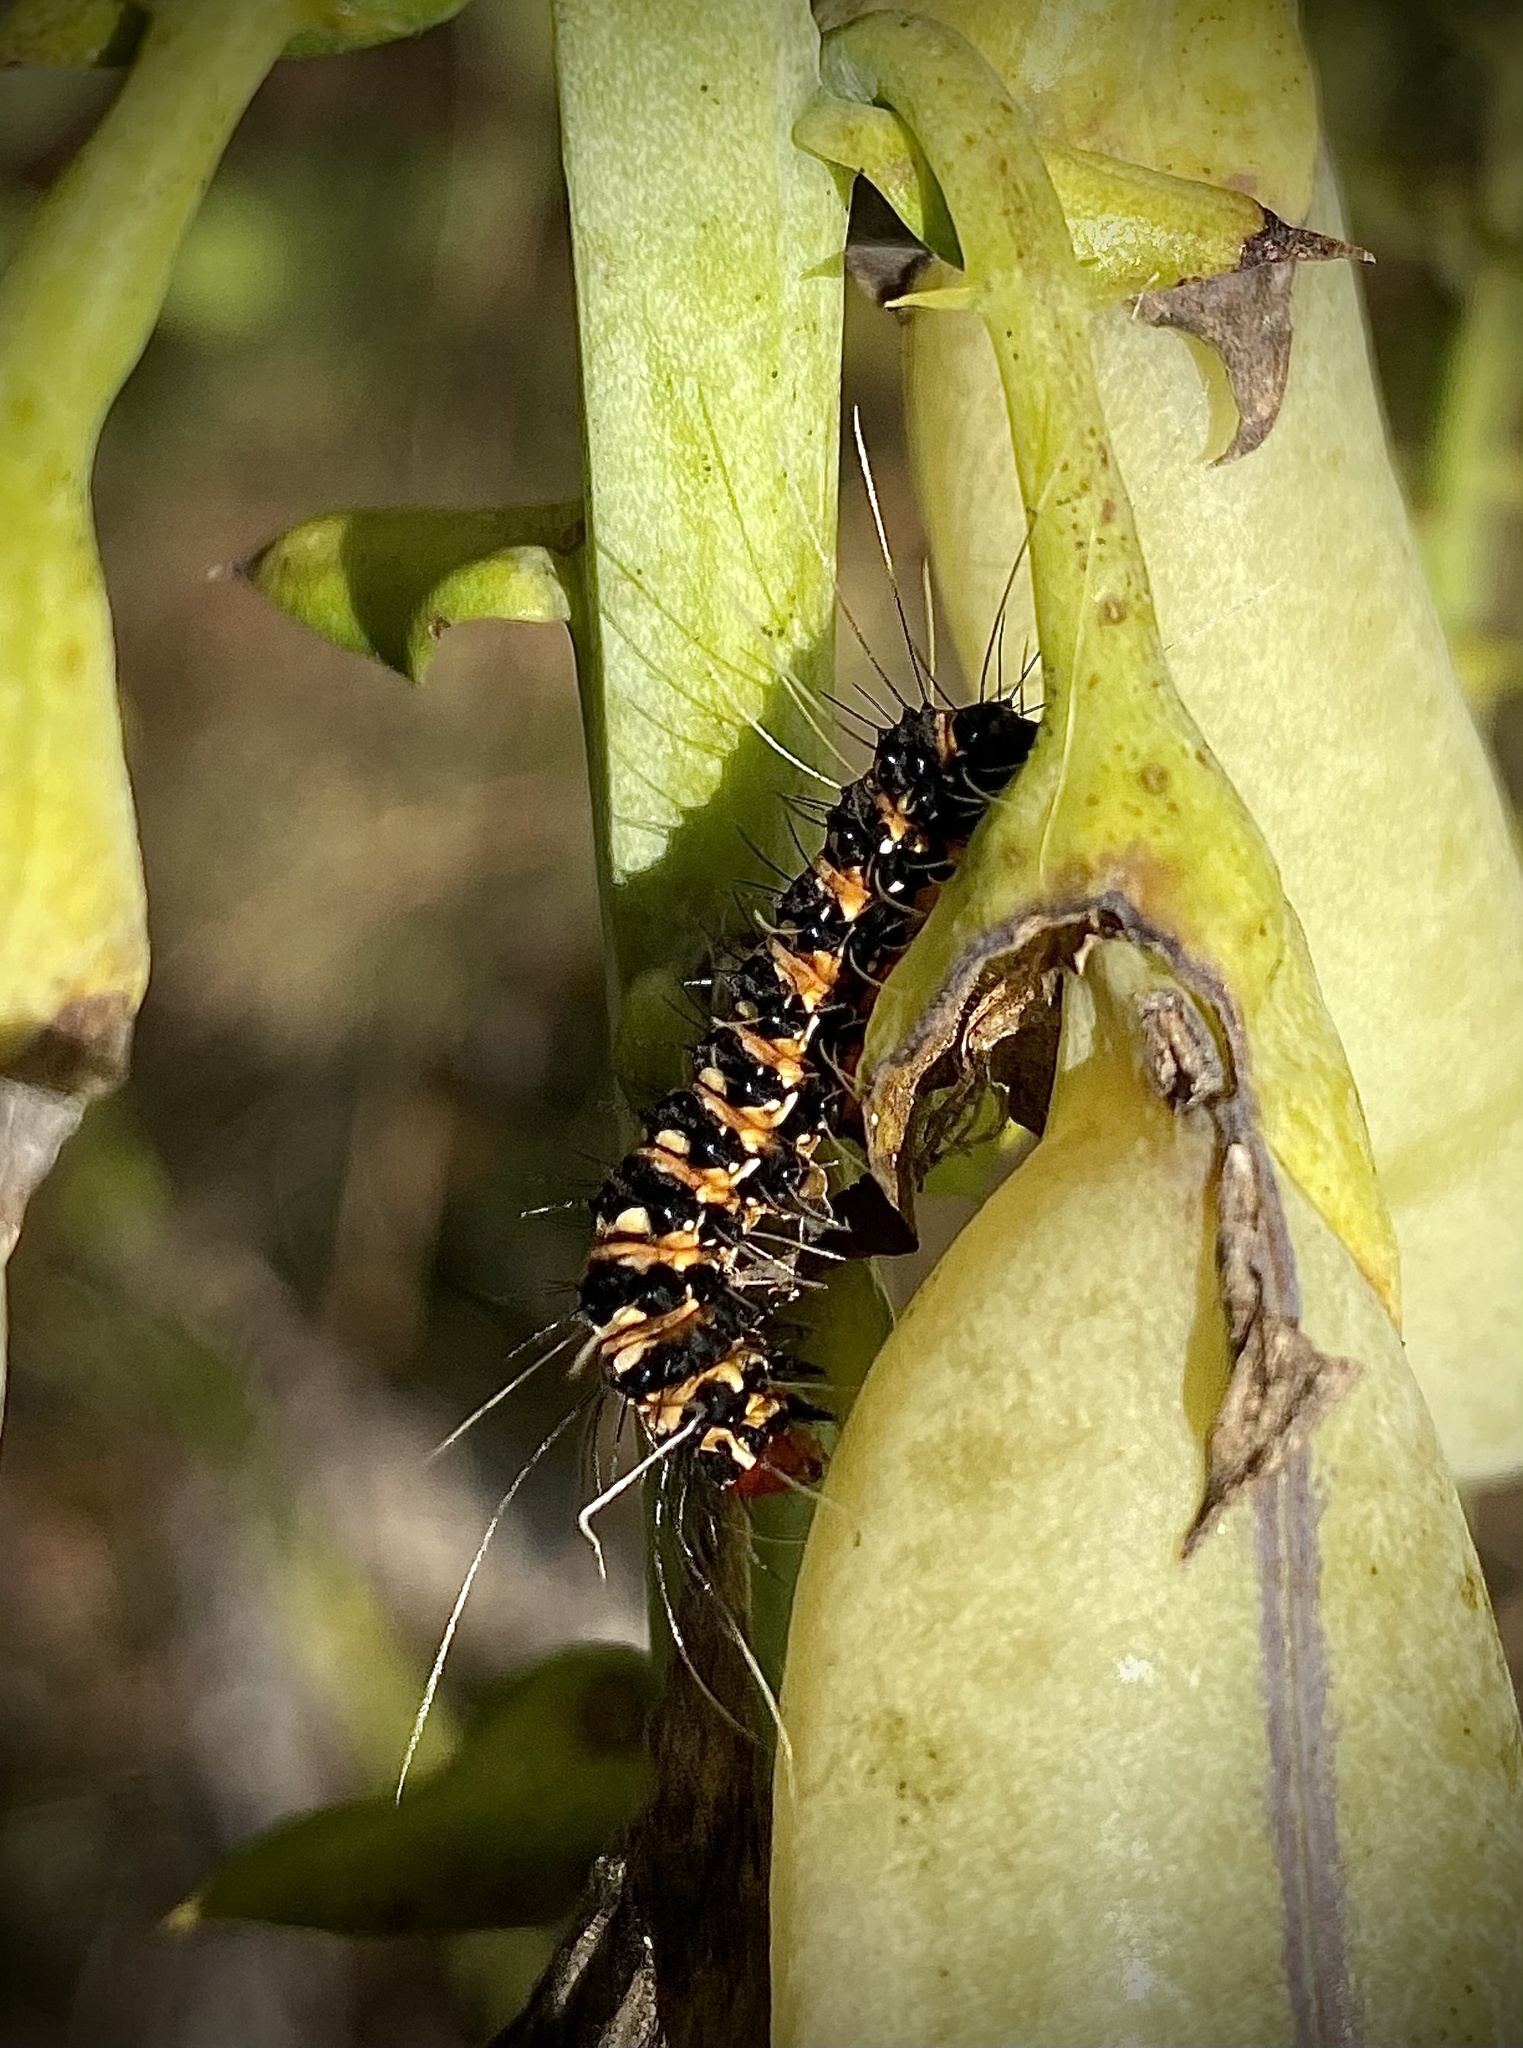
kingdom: Animalia
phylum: Arthropoda
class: Insecta
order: Lepidoptera
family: Erebidae
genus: Utetheisa
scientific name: Utetheisa ornatrix
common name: Beautiful utetheisa
